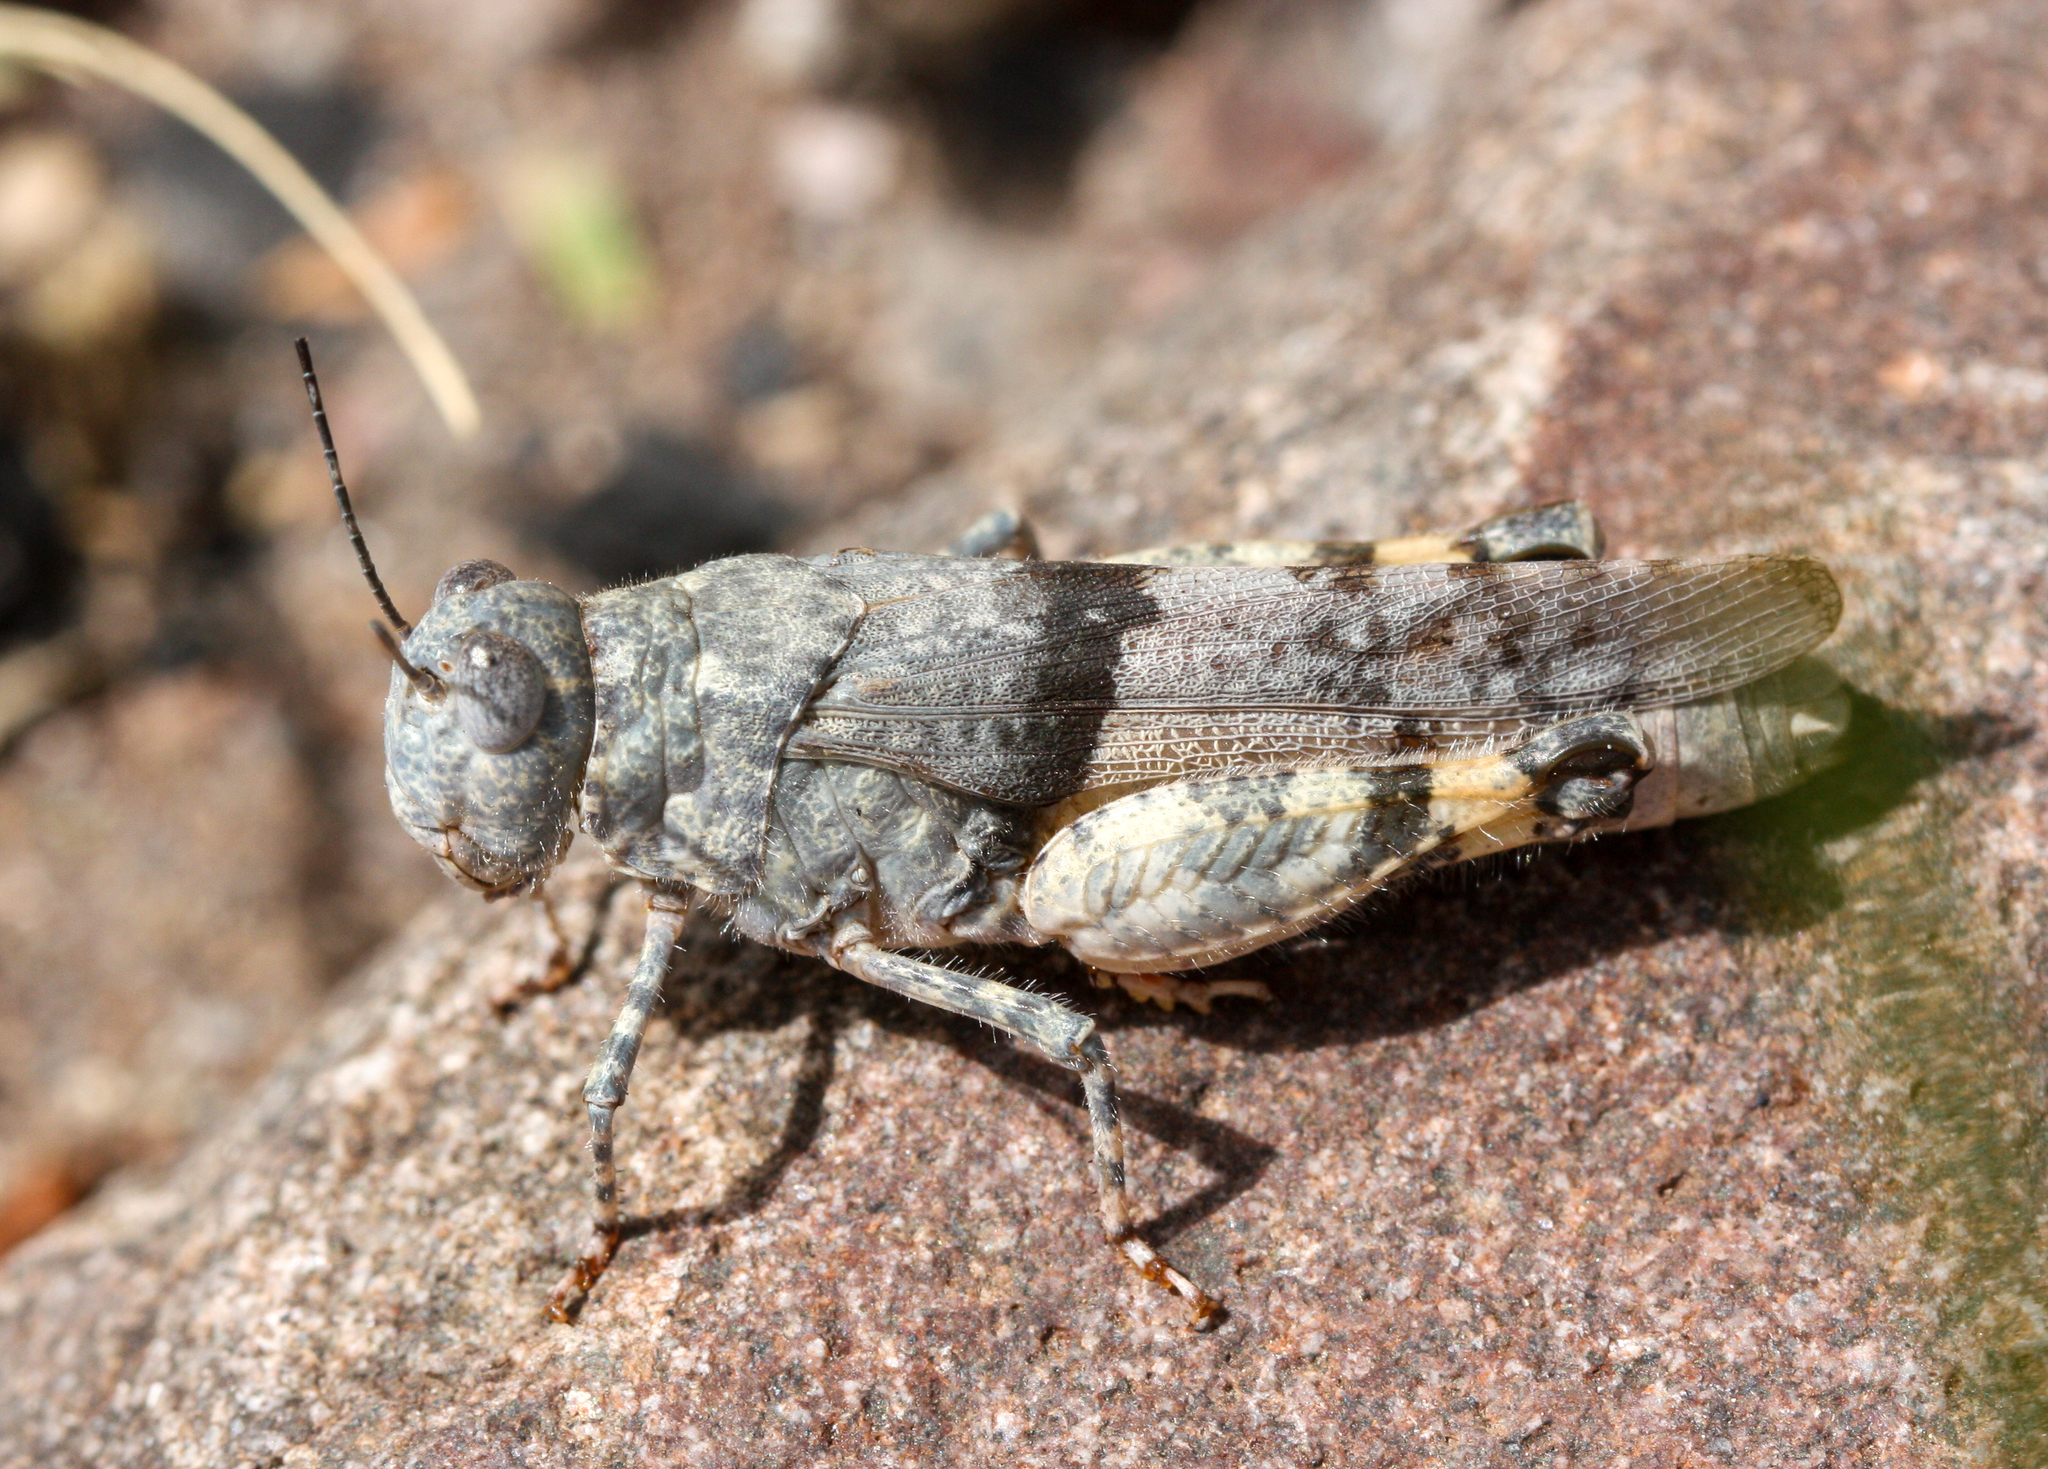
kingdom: Animalia
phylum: Arthropoda
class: Insecta
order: Orthoptera
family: Acrididae
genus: Heliastus
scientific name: Heliastus benjamini
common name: Arroyo grasshopper
